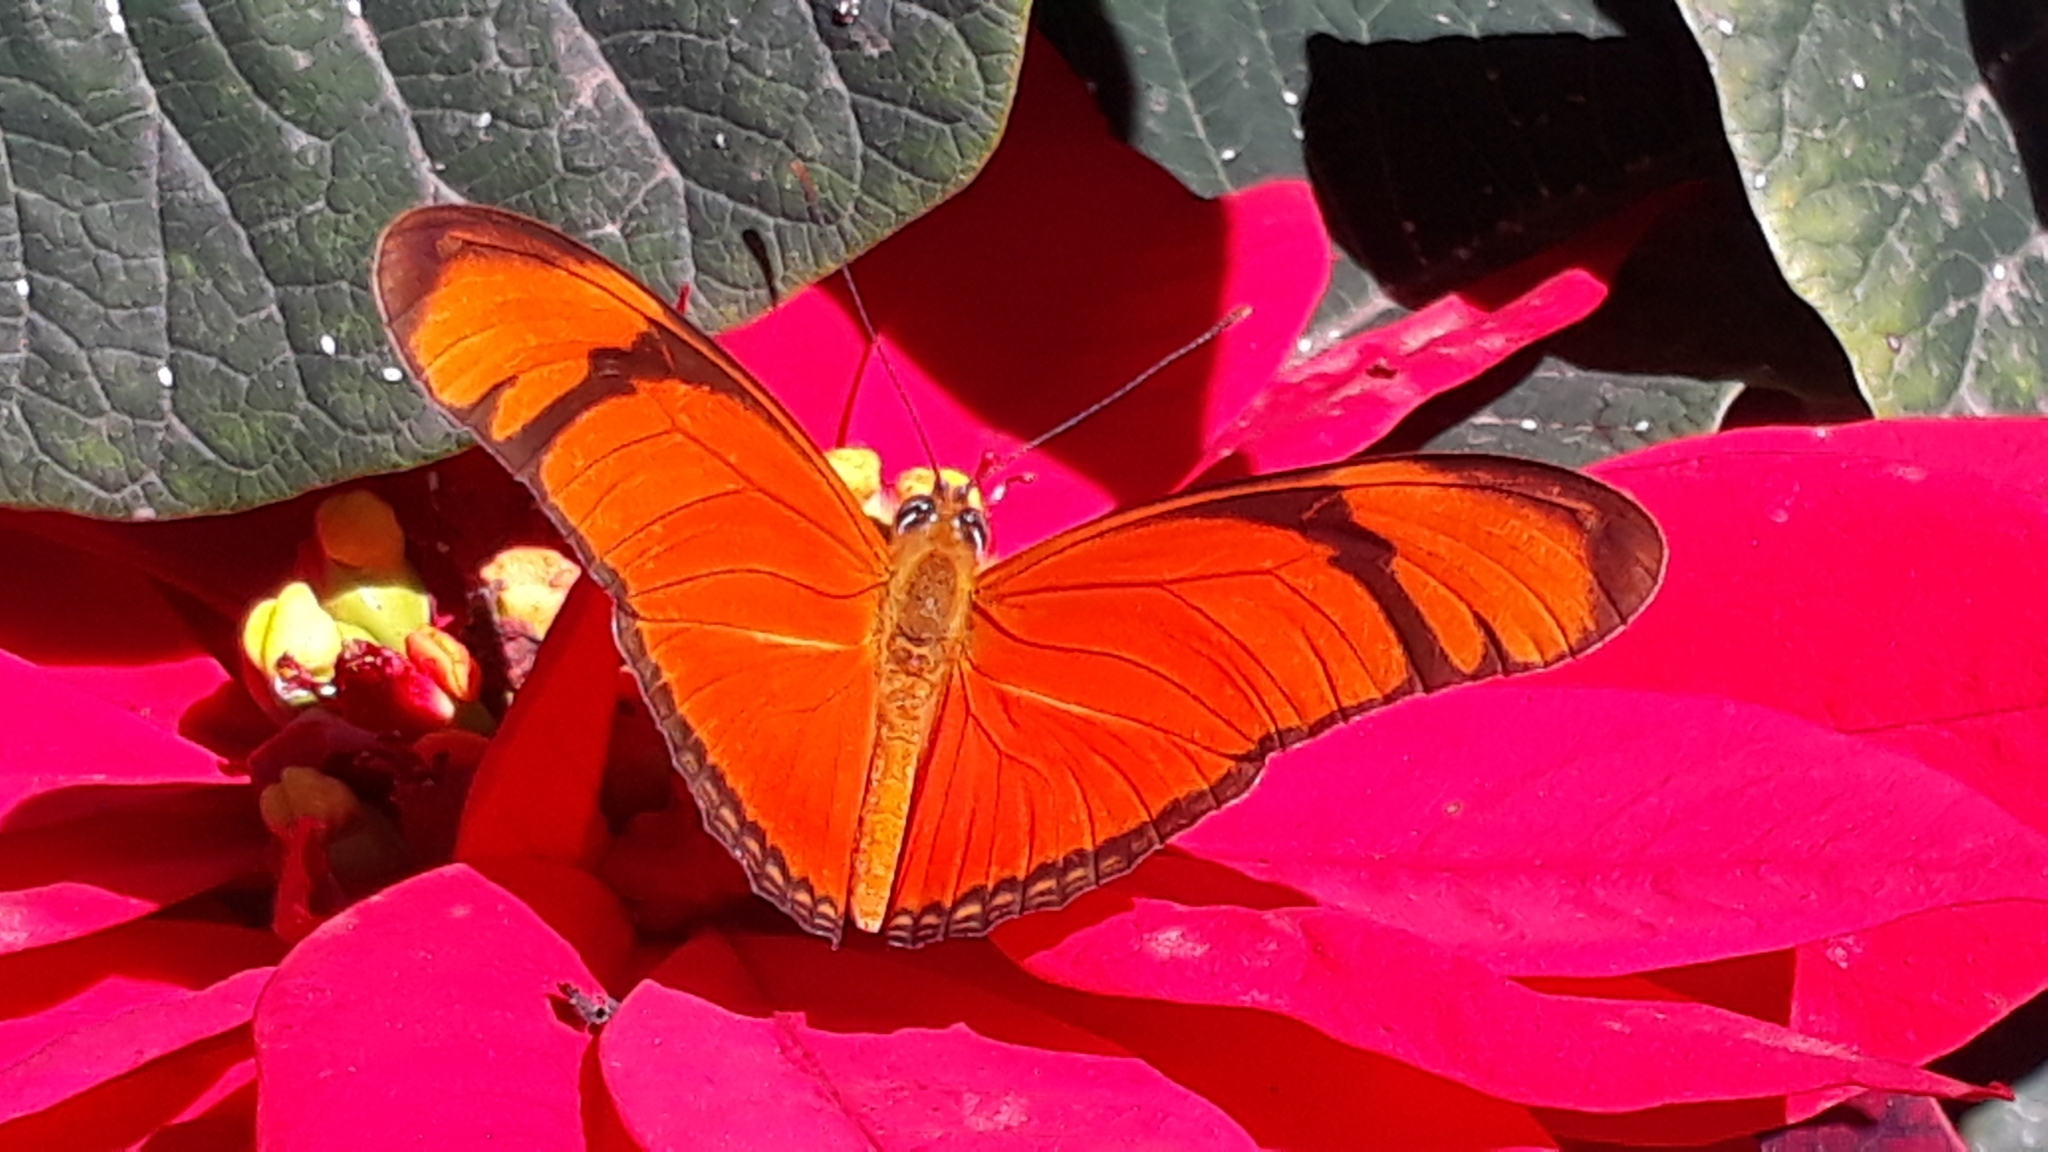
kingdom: Animalia
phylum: Arthropoda
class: Insecta
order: Lepidoptera
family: Nymphalidae
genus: Dryas
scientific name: Dryas iulia
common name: Flambeau
